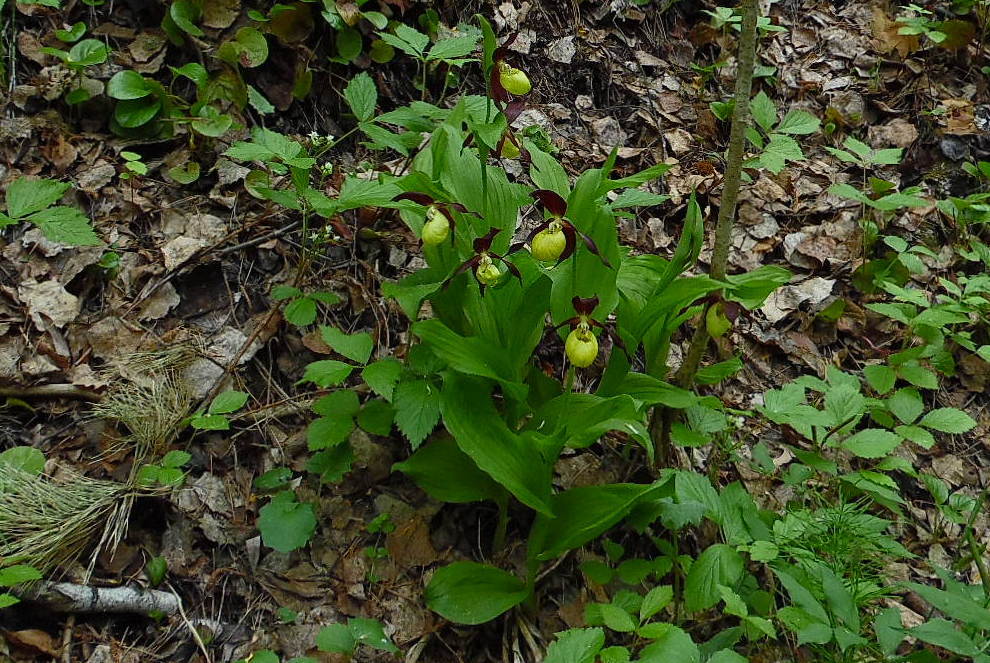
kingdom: Plantae
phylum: Tracheophyta
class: Liliopsida
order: Asparagales
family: Orchidaceae
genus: Cypripedium
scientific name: Cypripedium calceolus
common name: Lady's-slipper
